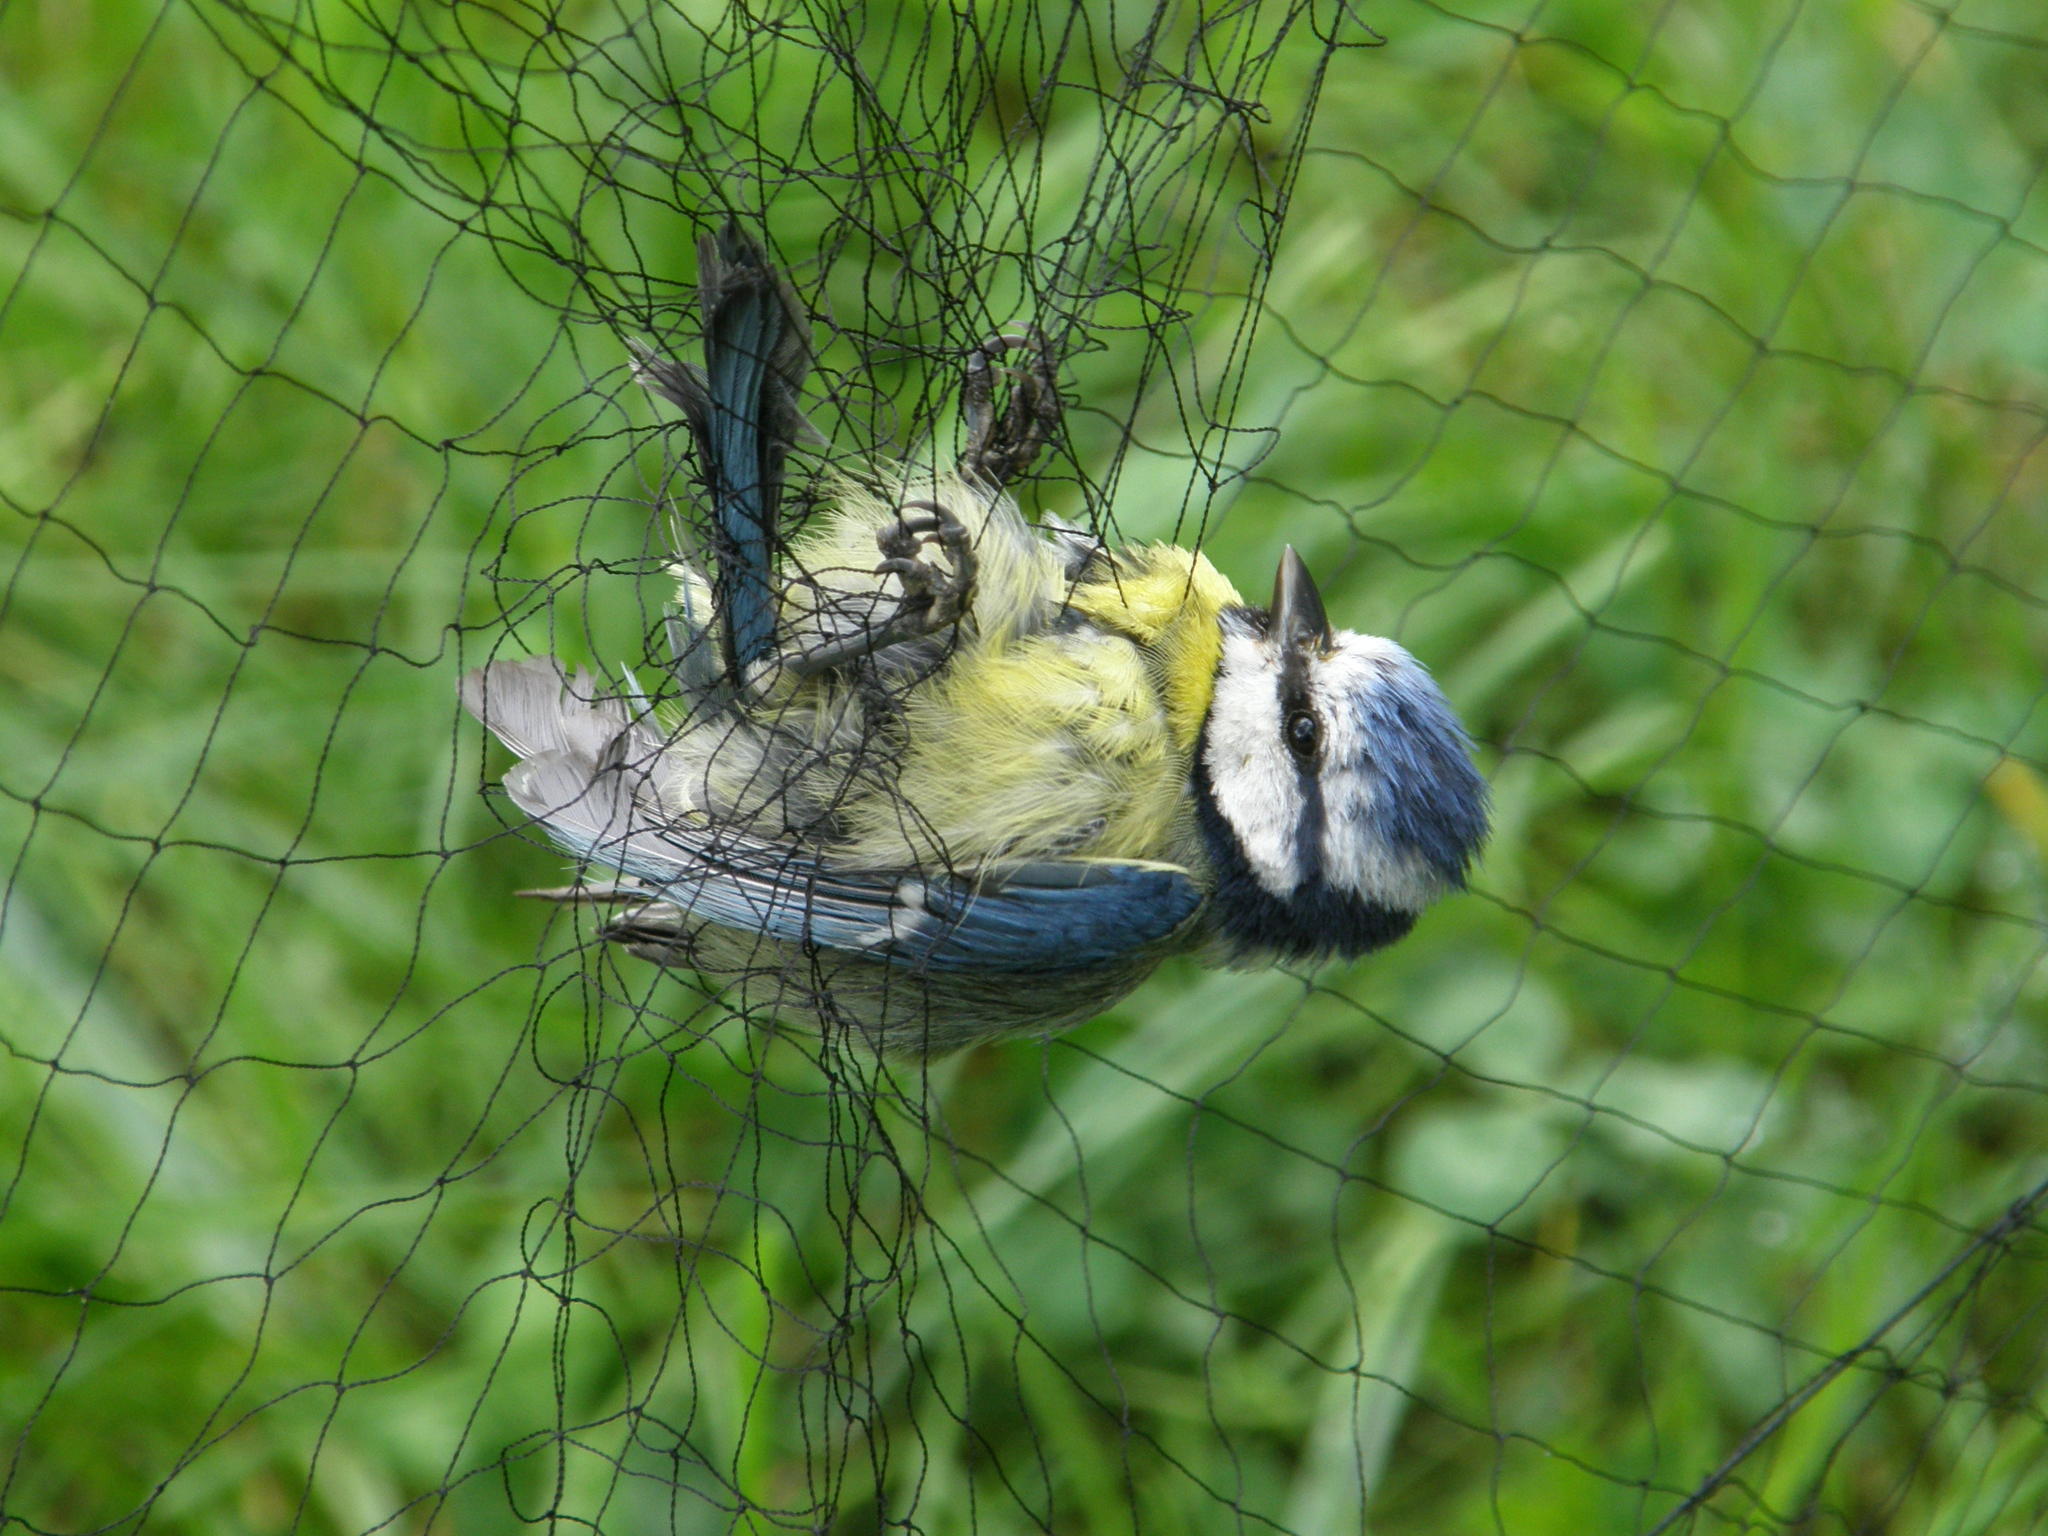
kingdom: Animalia
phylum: Chordata
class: Aves
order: Passeriformes
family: Paridae
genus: Cyanistes
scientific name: Cyanistes caeruleus
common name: Eurasian blue tit
